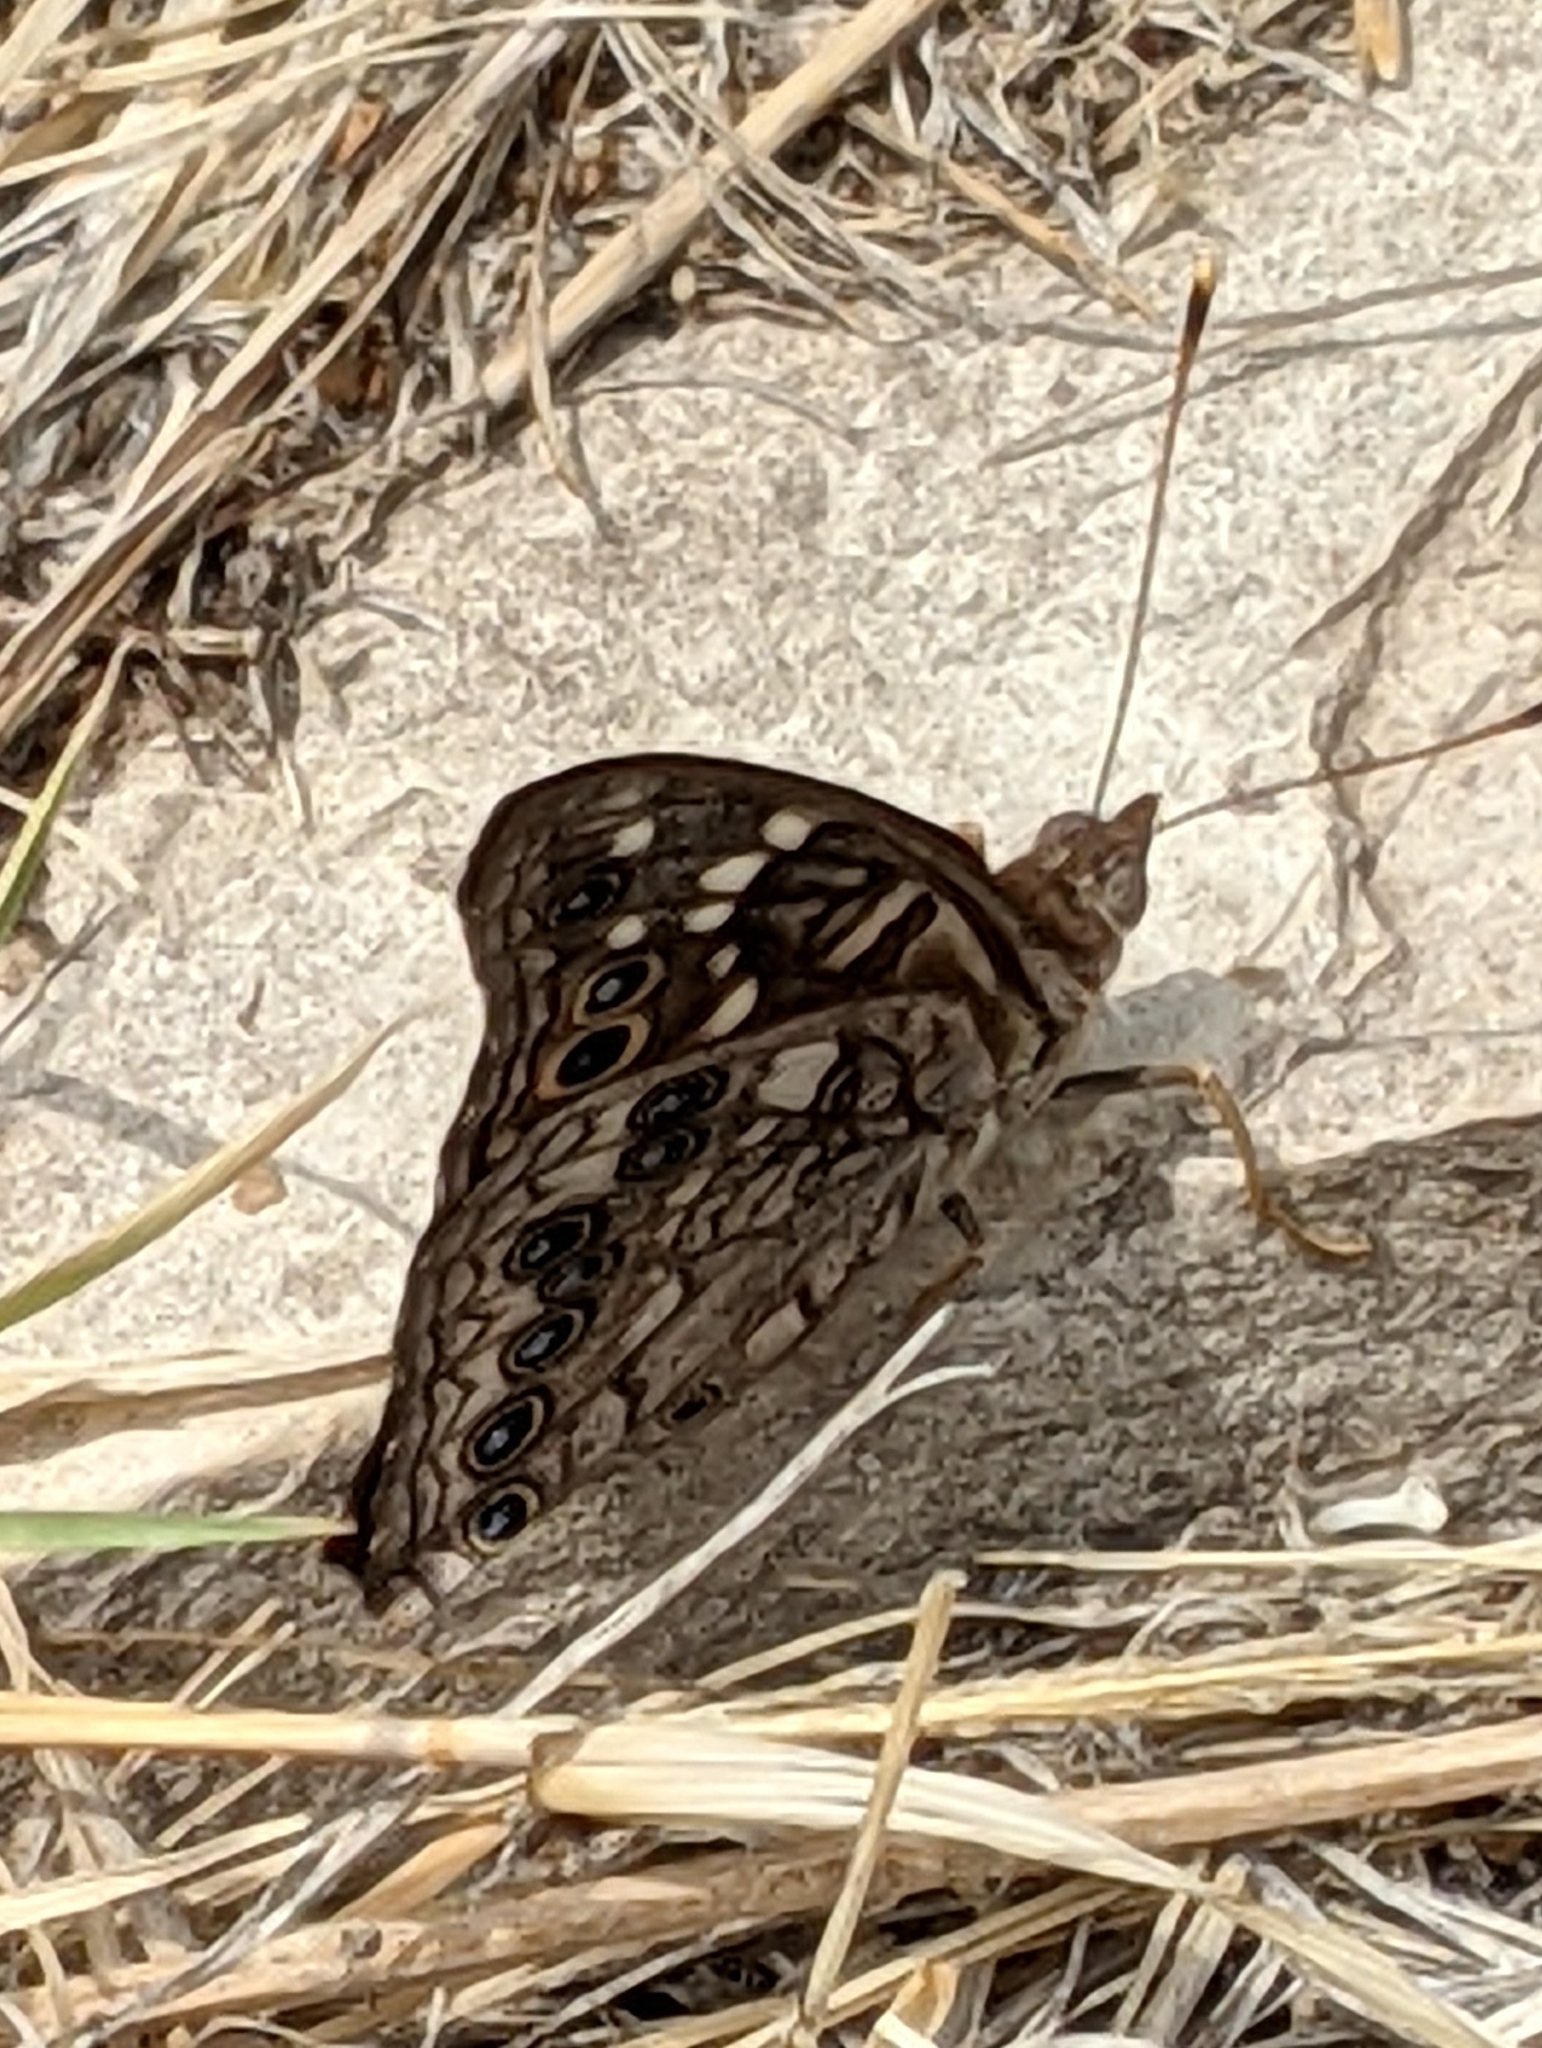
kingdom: Animalia
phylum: Arthropoda
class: Insecta
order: Lepidoptera
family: Nymphalidae
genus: Asterocampa
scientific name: Asterocampa leilia
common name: Empress leilia
